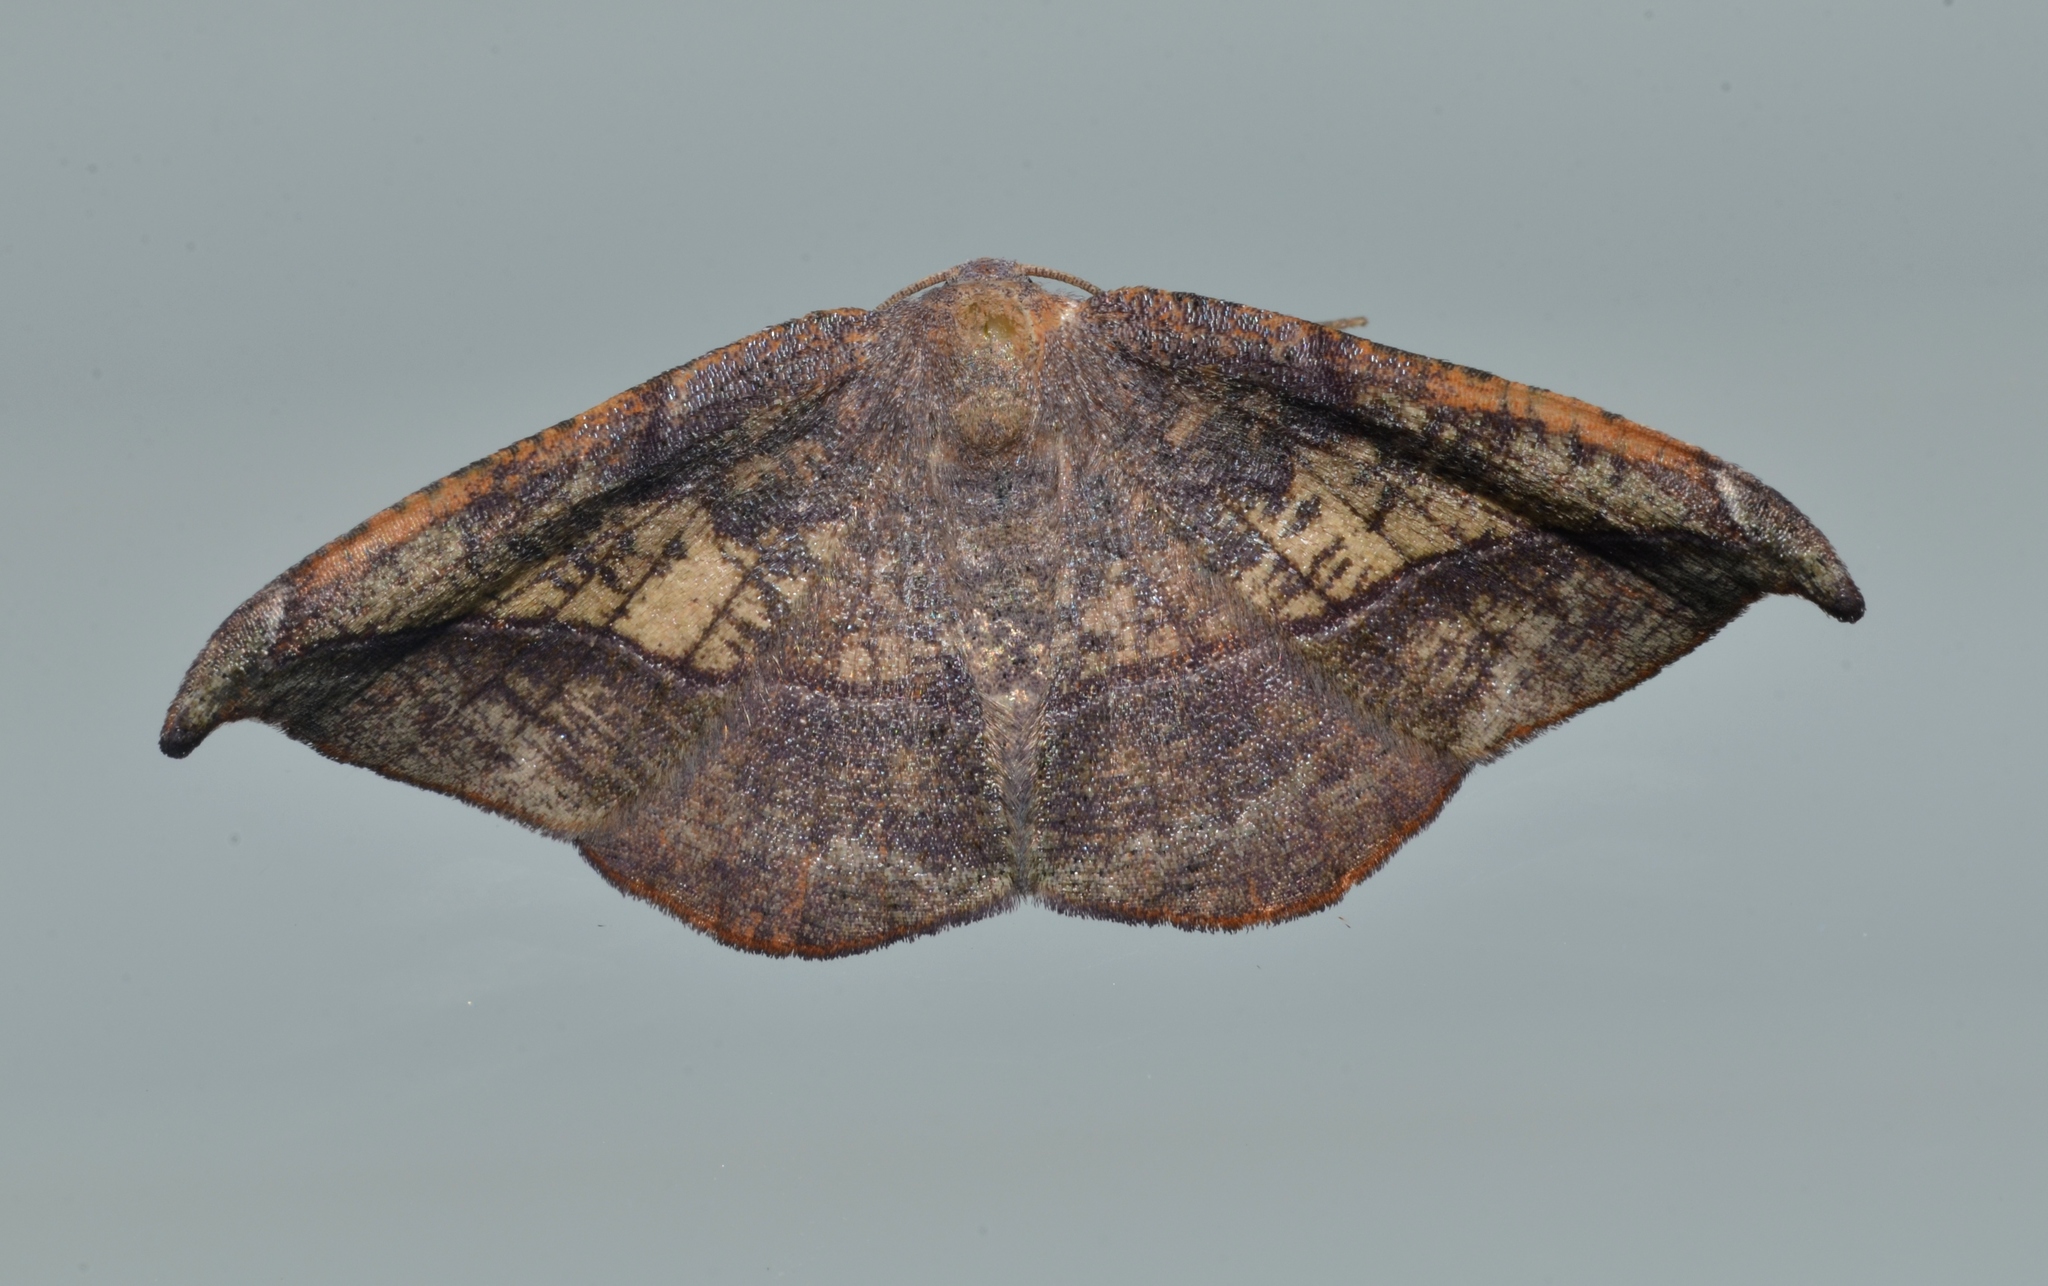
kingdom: Animalia
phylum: Arthropoda
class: Insecta
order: Lepidoptera
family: Geometridae
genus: Patalene
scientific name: Patalene olyzonaria
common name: Juniper geometer moth
